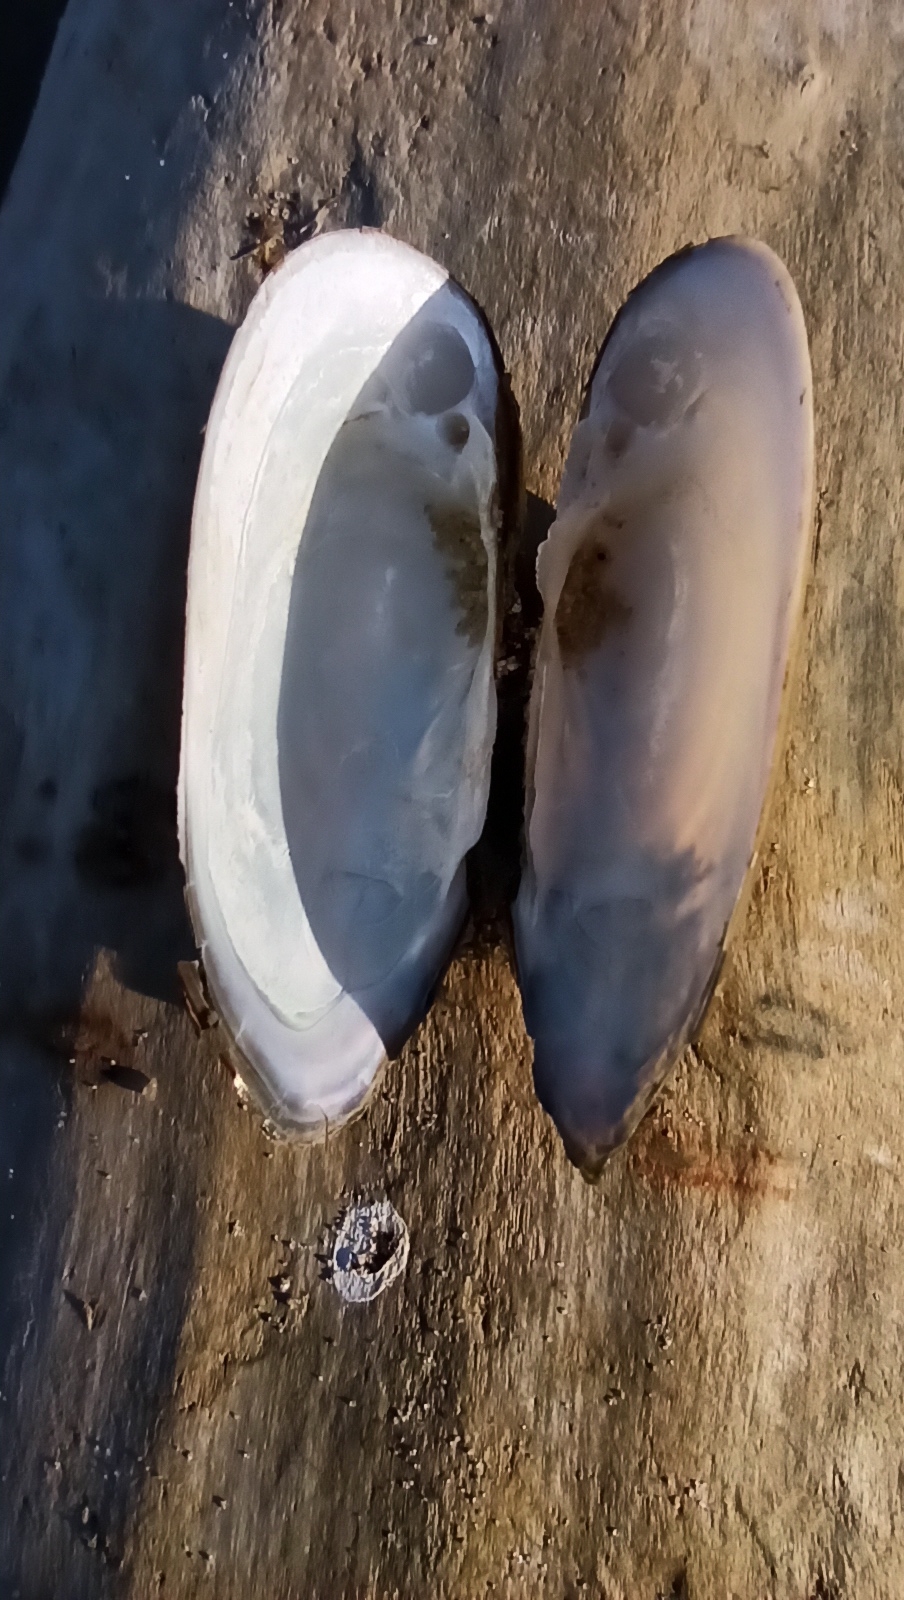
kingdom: Animalia
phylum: Mollusca
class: Bivalvia
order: Unionida
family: Unionidae
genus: Unio
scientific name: Unio tumidus
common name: Swollen river mussel
